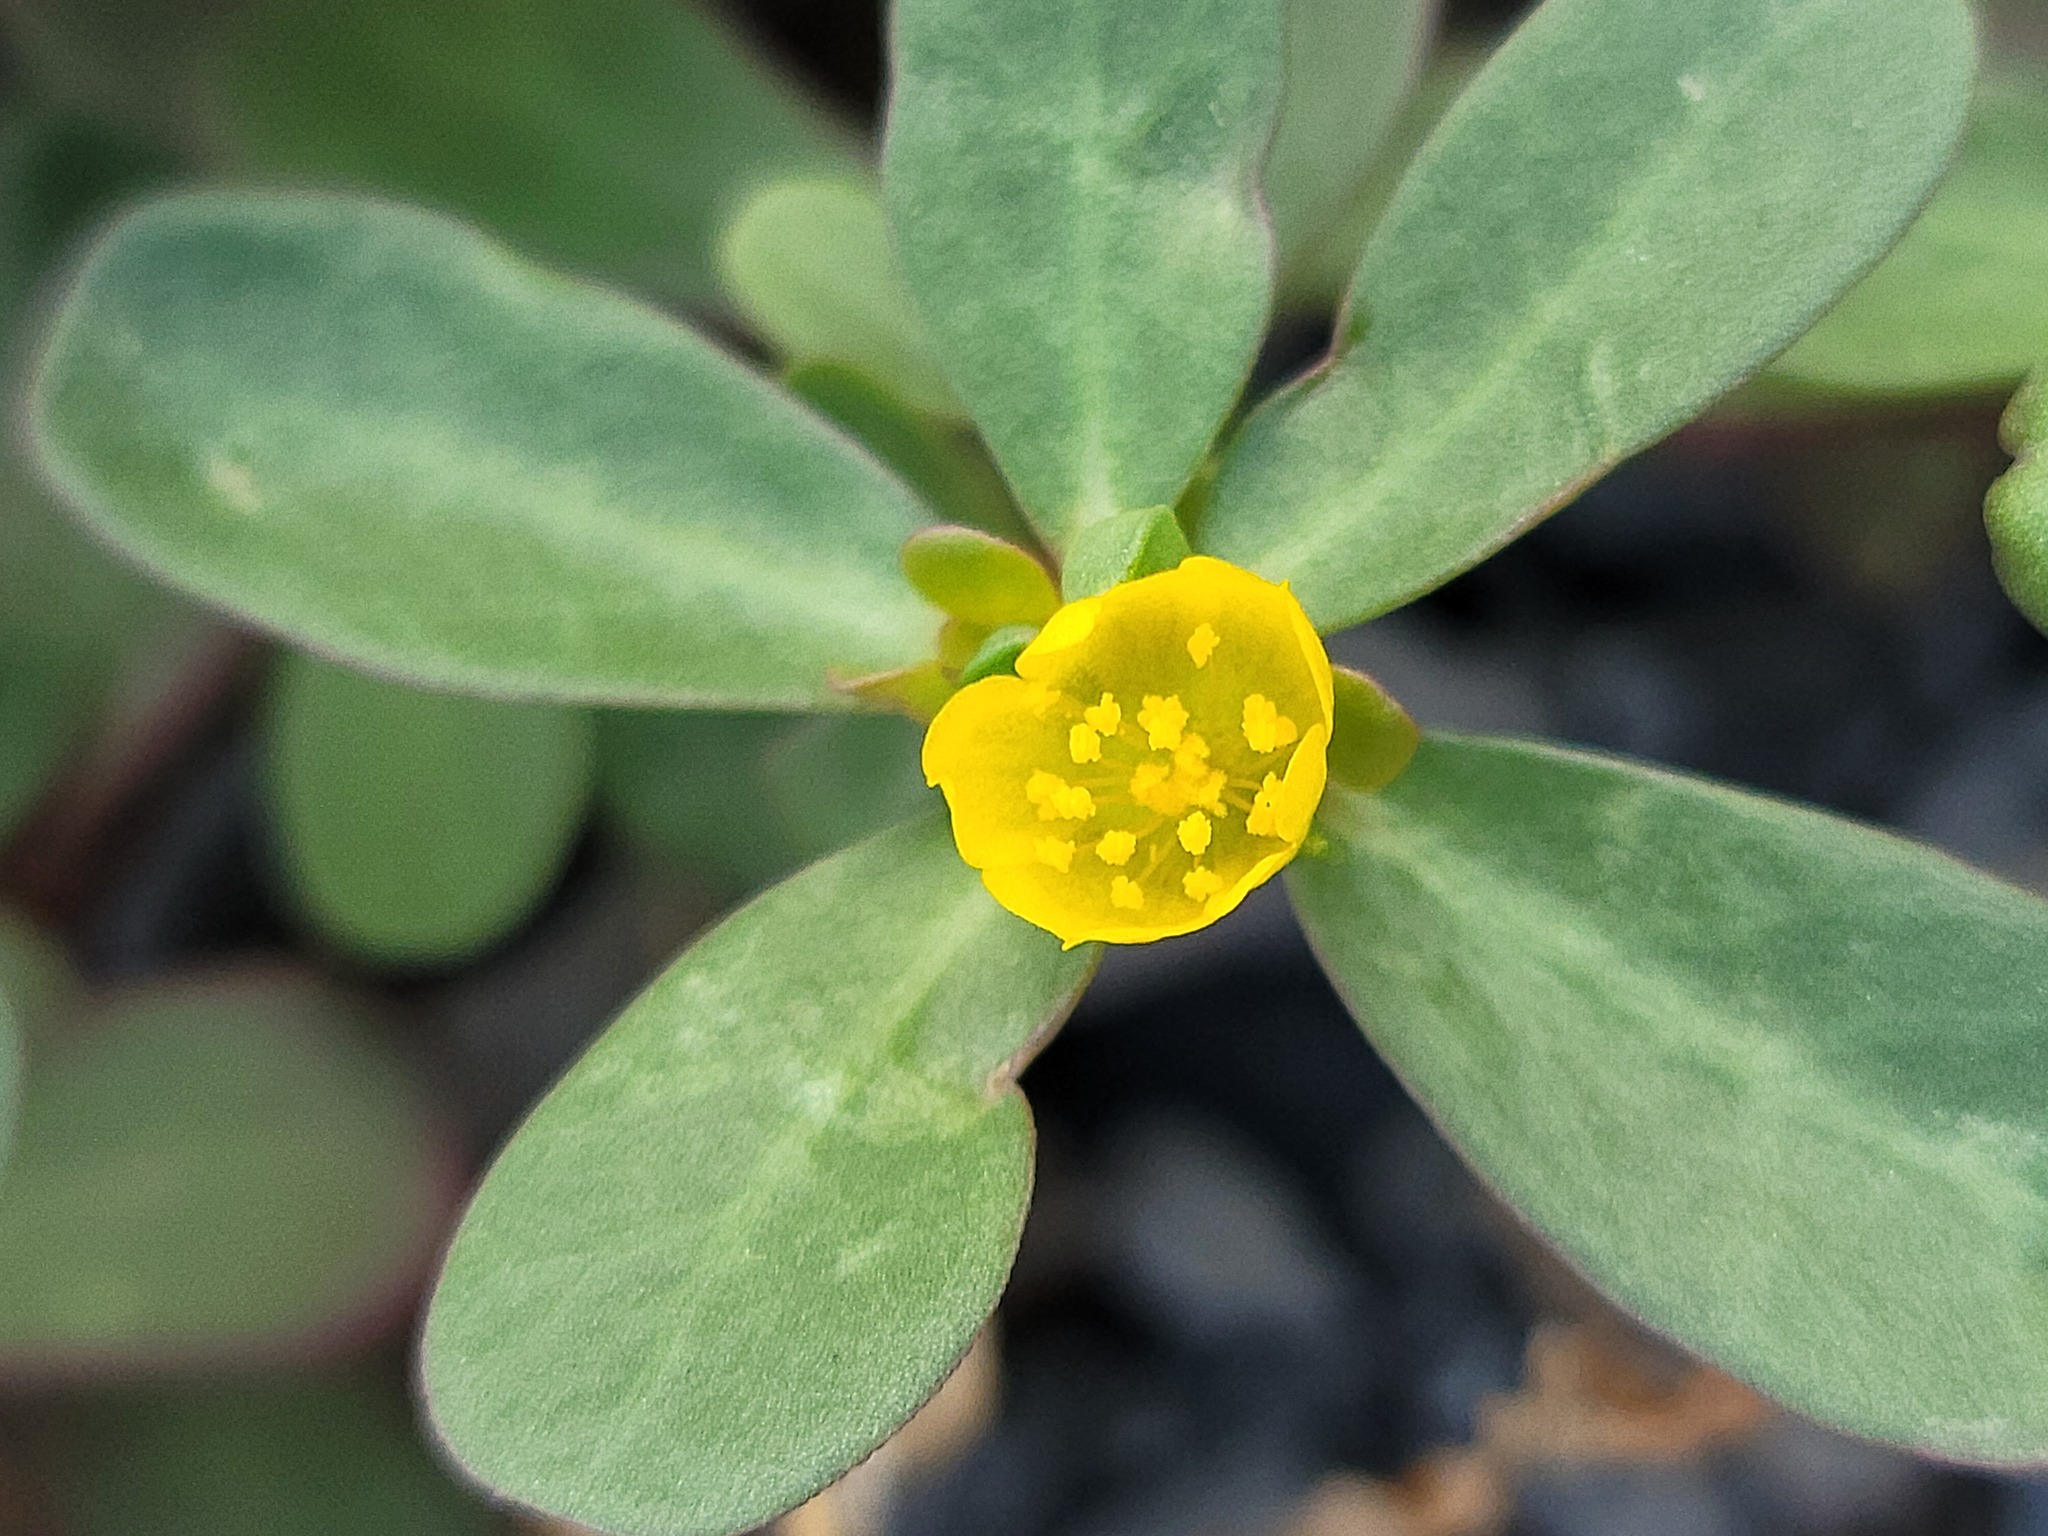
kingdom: Plantae
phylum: Tracheophyta
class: Magnoliopsida
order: Caryophyllales
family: Portulacaceae
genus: Portulaca
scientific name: Portulaca oleracea
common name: Common purslane
